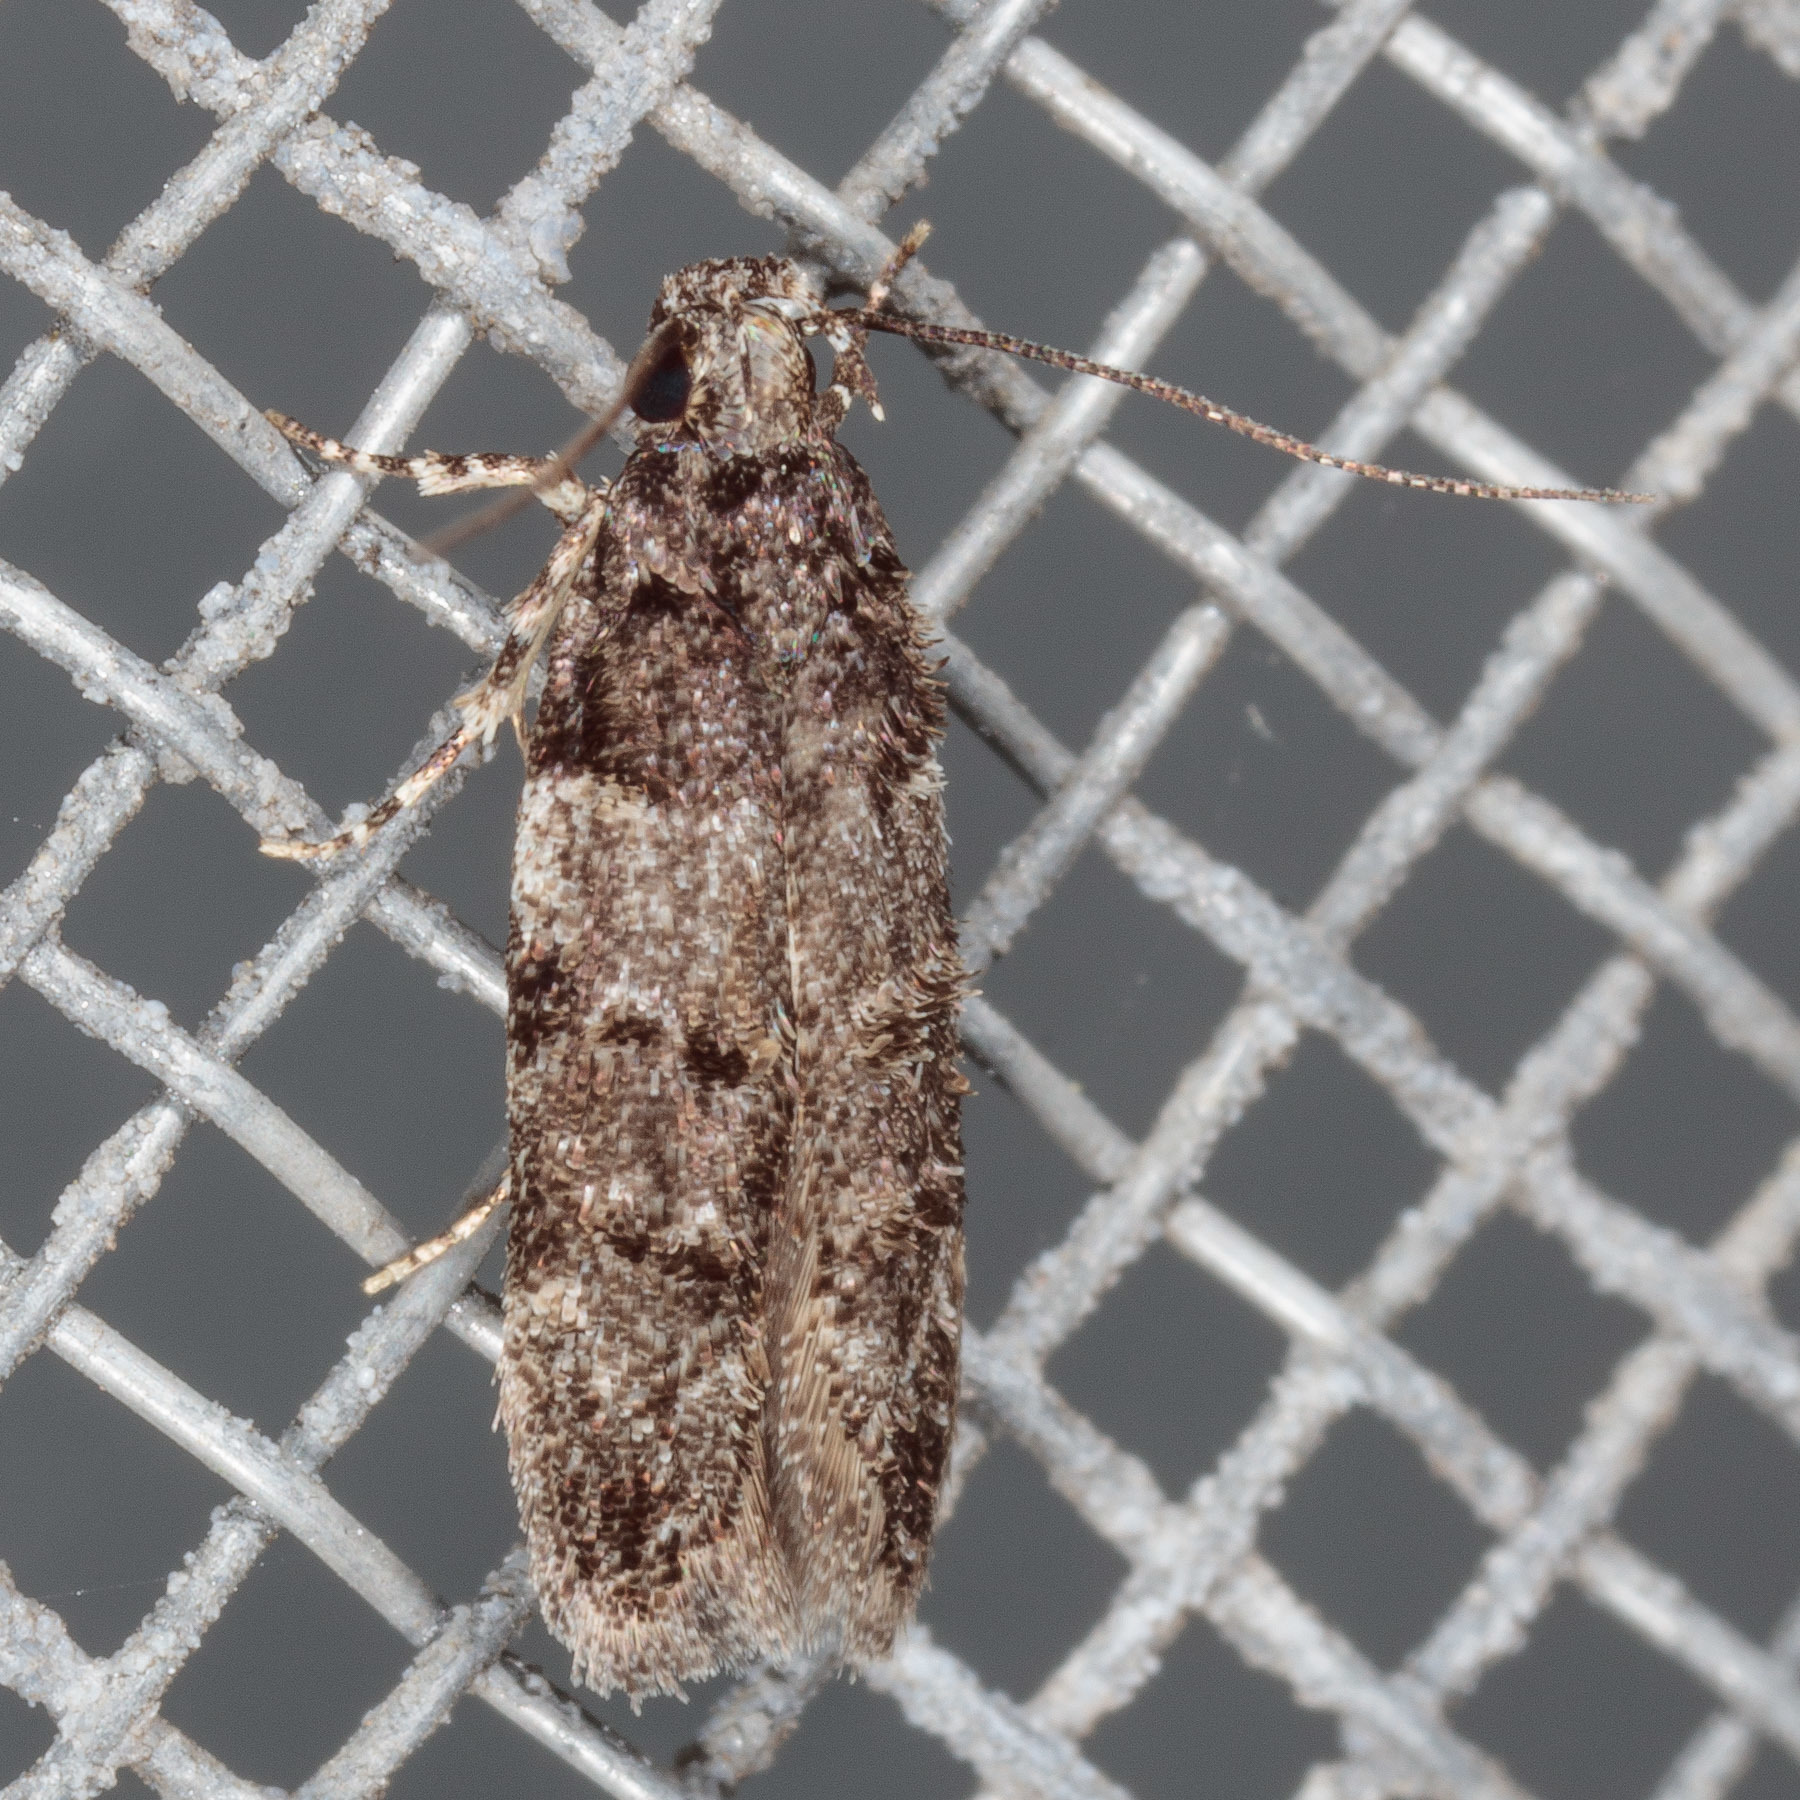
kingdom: Animalia
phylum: Arthropoda
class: Insecta
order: Lepidoptera
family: Gelechiidae
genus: Pubitelphusa
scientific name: Pubitelphusa latifasciella
